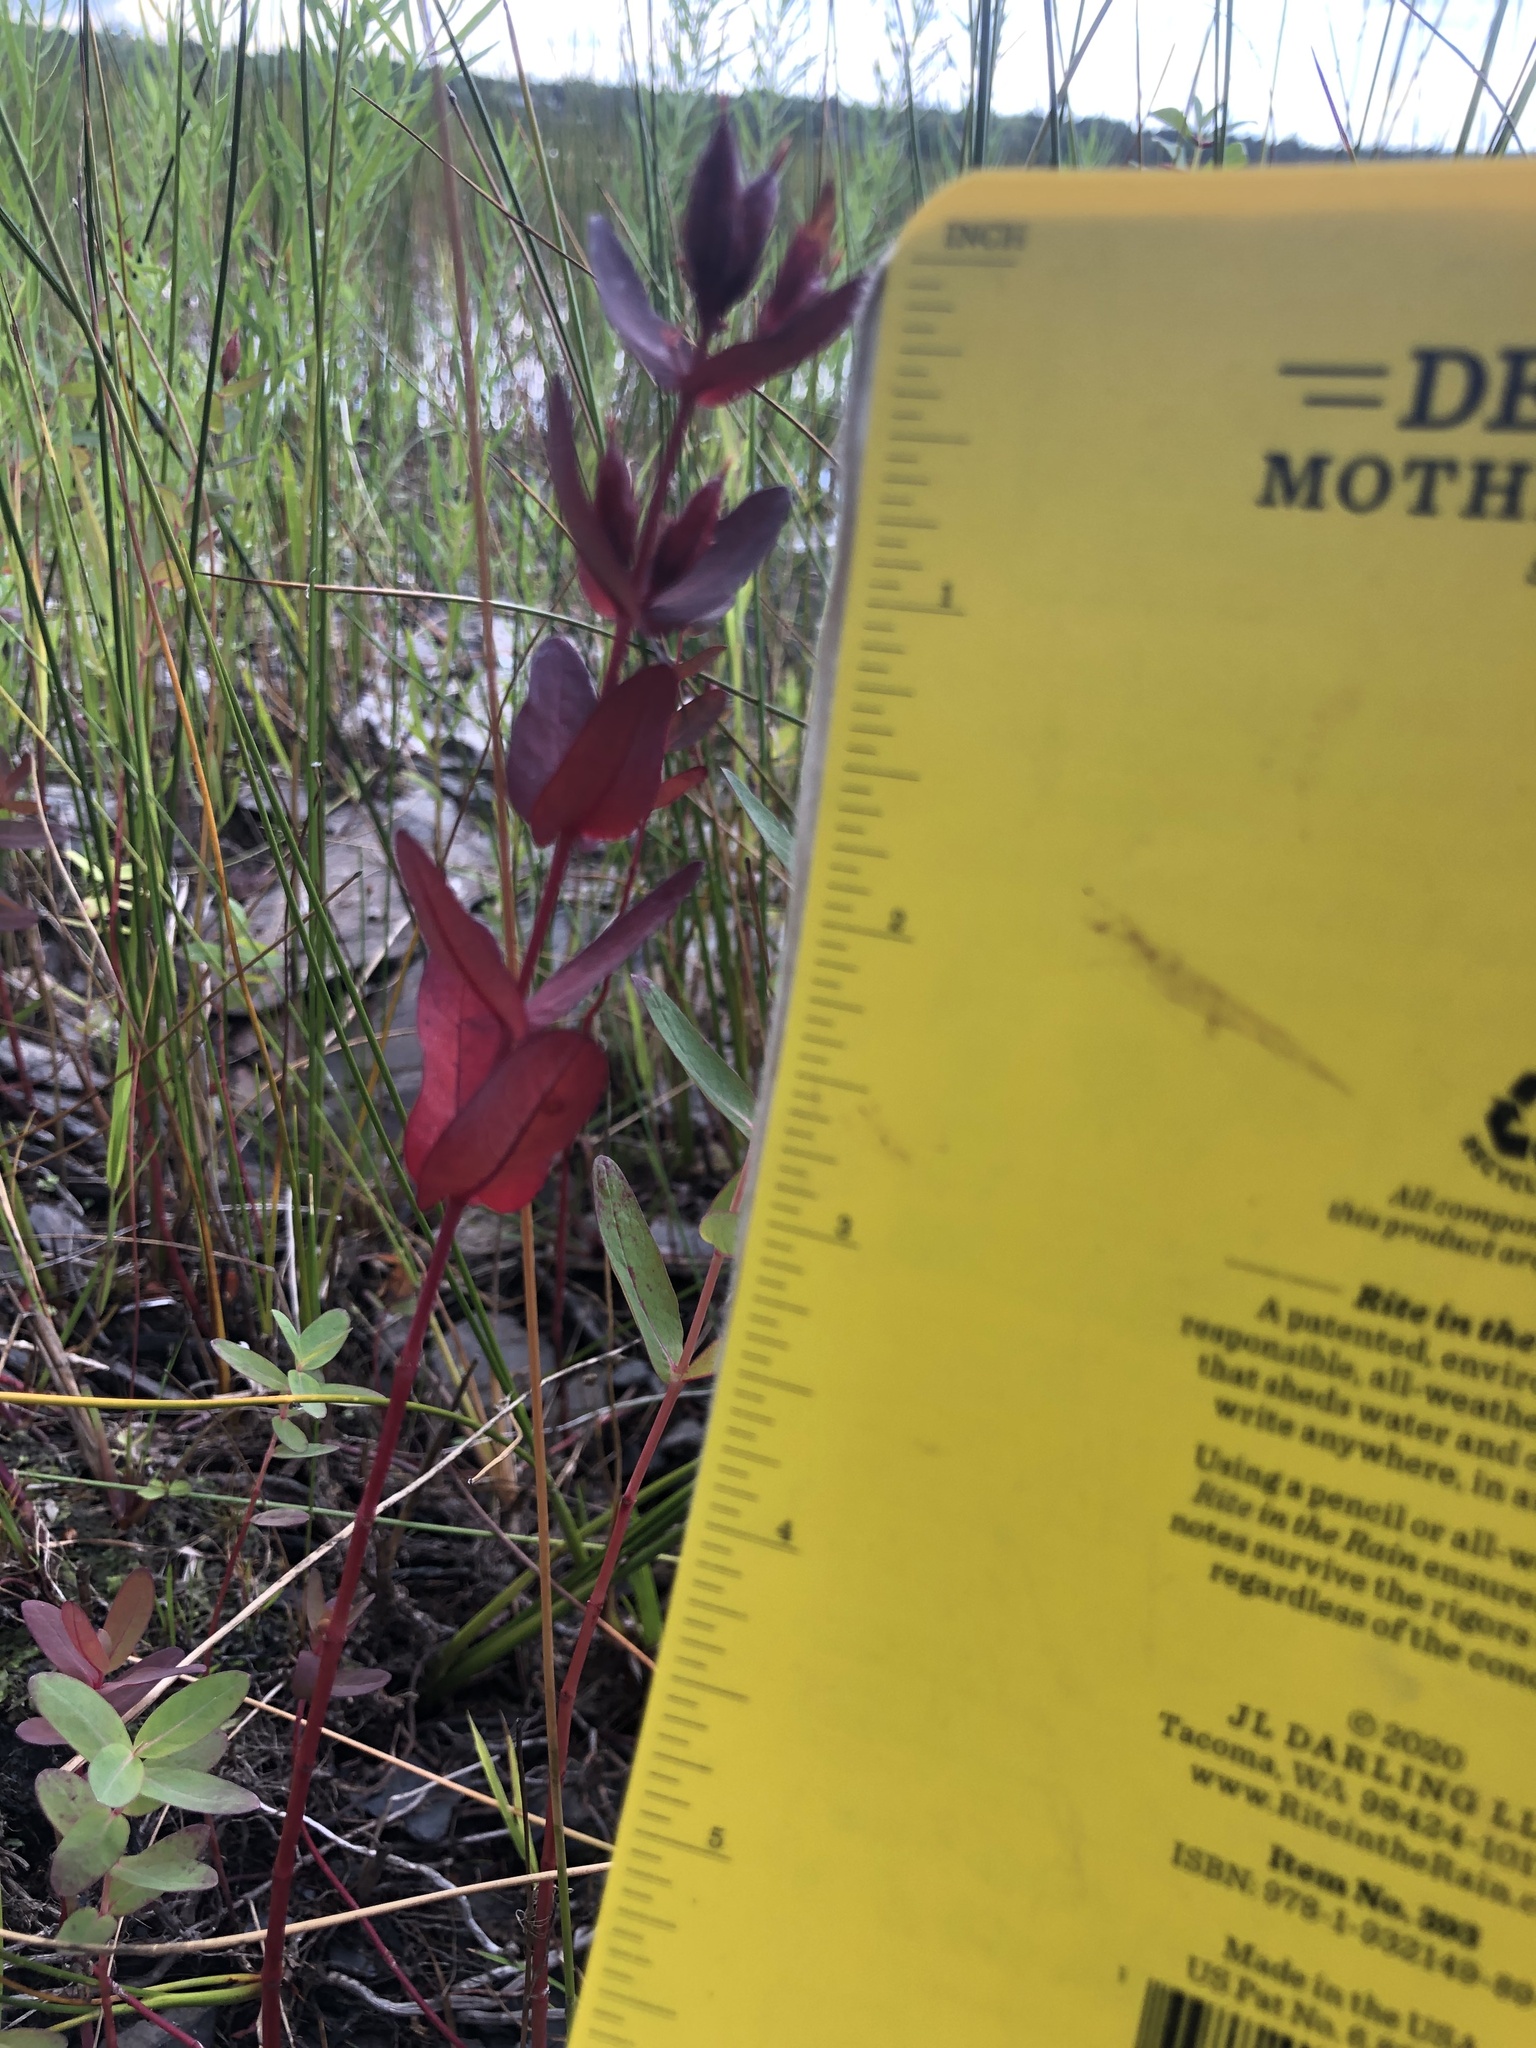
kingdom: Plantae
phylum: Tracheophyta
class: Magnoliopsida
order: Malpighiales
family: Hypericaceae
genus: Triadenum
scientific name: Triadenum fraseri
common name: Fraser's marsh st. johnswort
